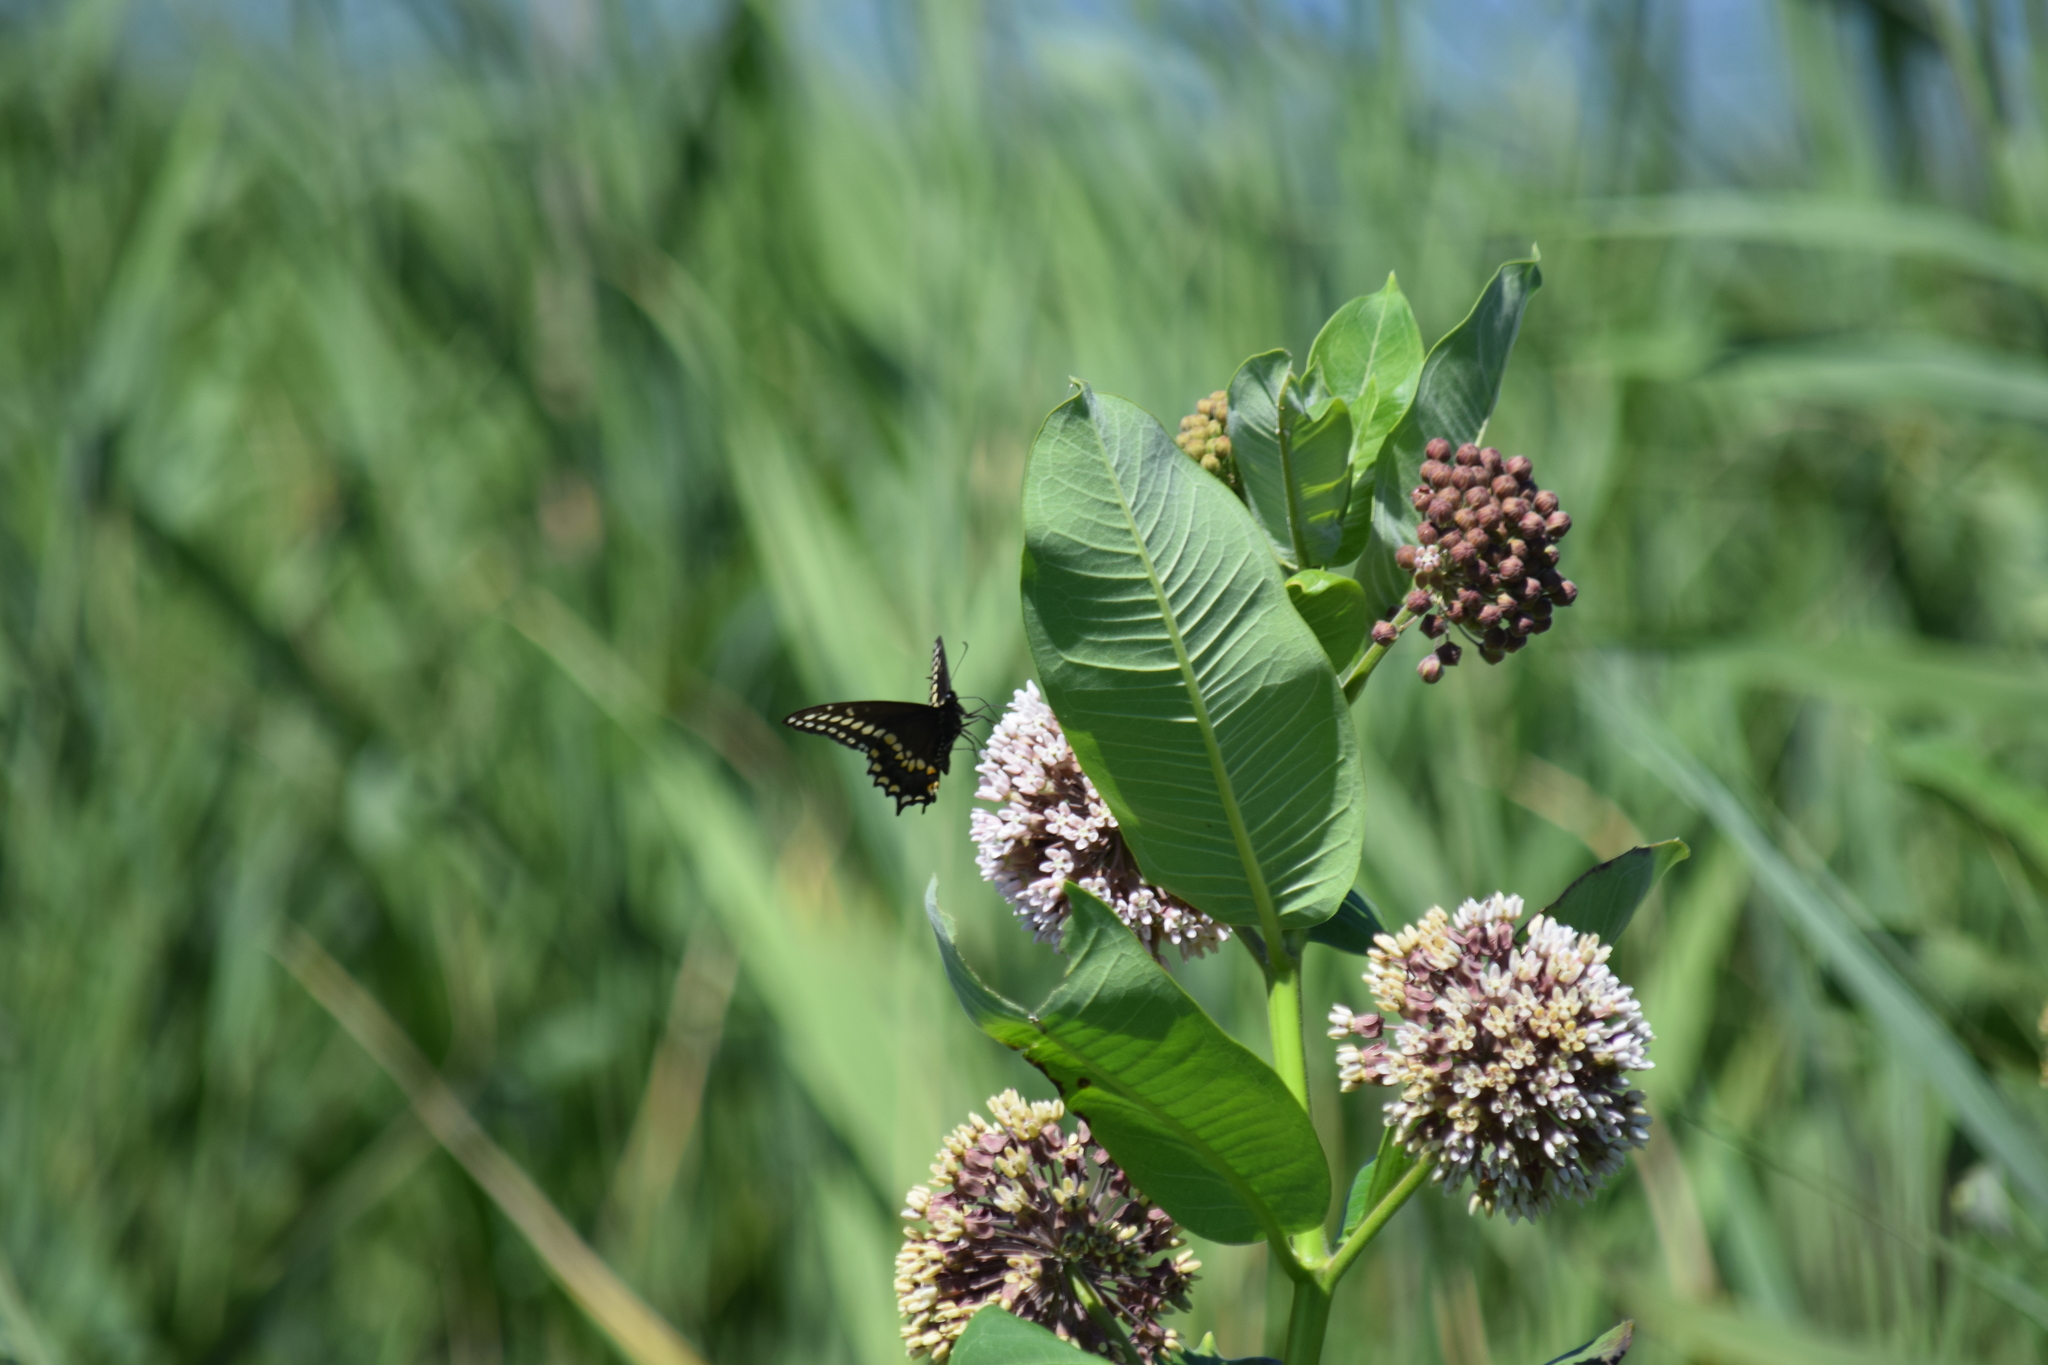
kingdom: Animalia
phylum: Arthropoda
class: Insecta
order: Lepidoptera
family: Papilionidae
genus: Papilio
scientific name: Papilio polyxenes
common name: Black swallowtail
